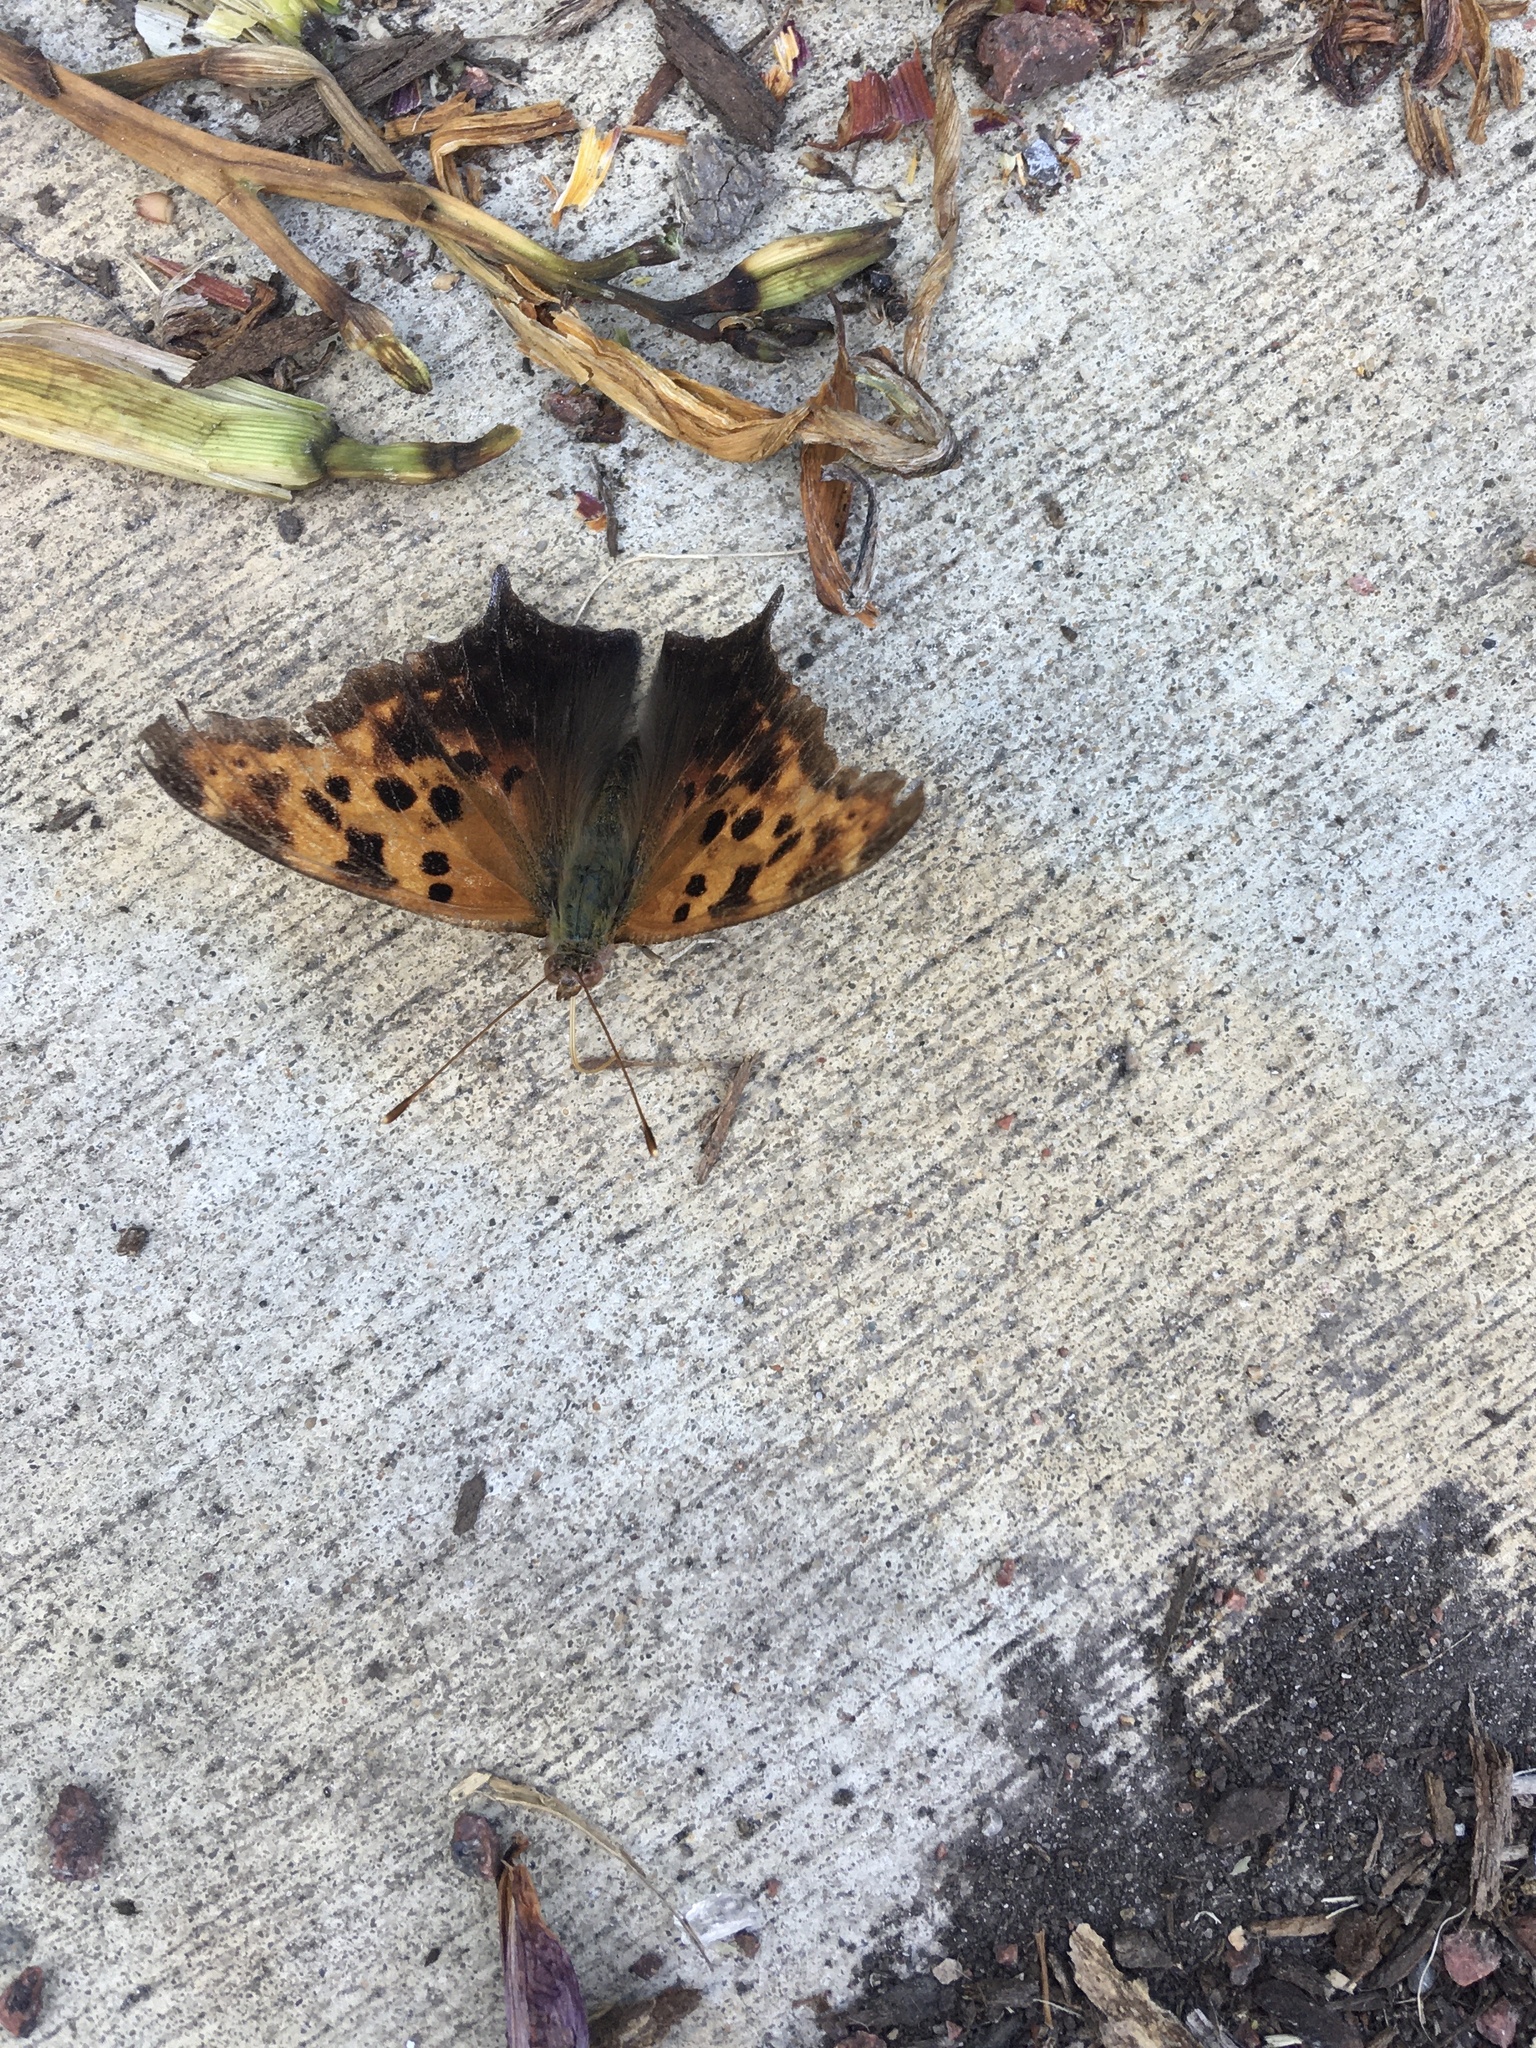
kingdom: Animalia
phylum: Arthropoda
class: Insecta
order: Lepidoptera
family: Nymphalidae
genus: Polygonia
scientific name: Polygonia interrogationis
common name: Question mark
